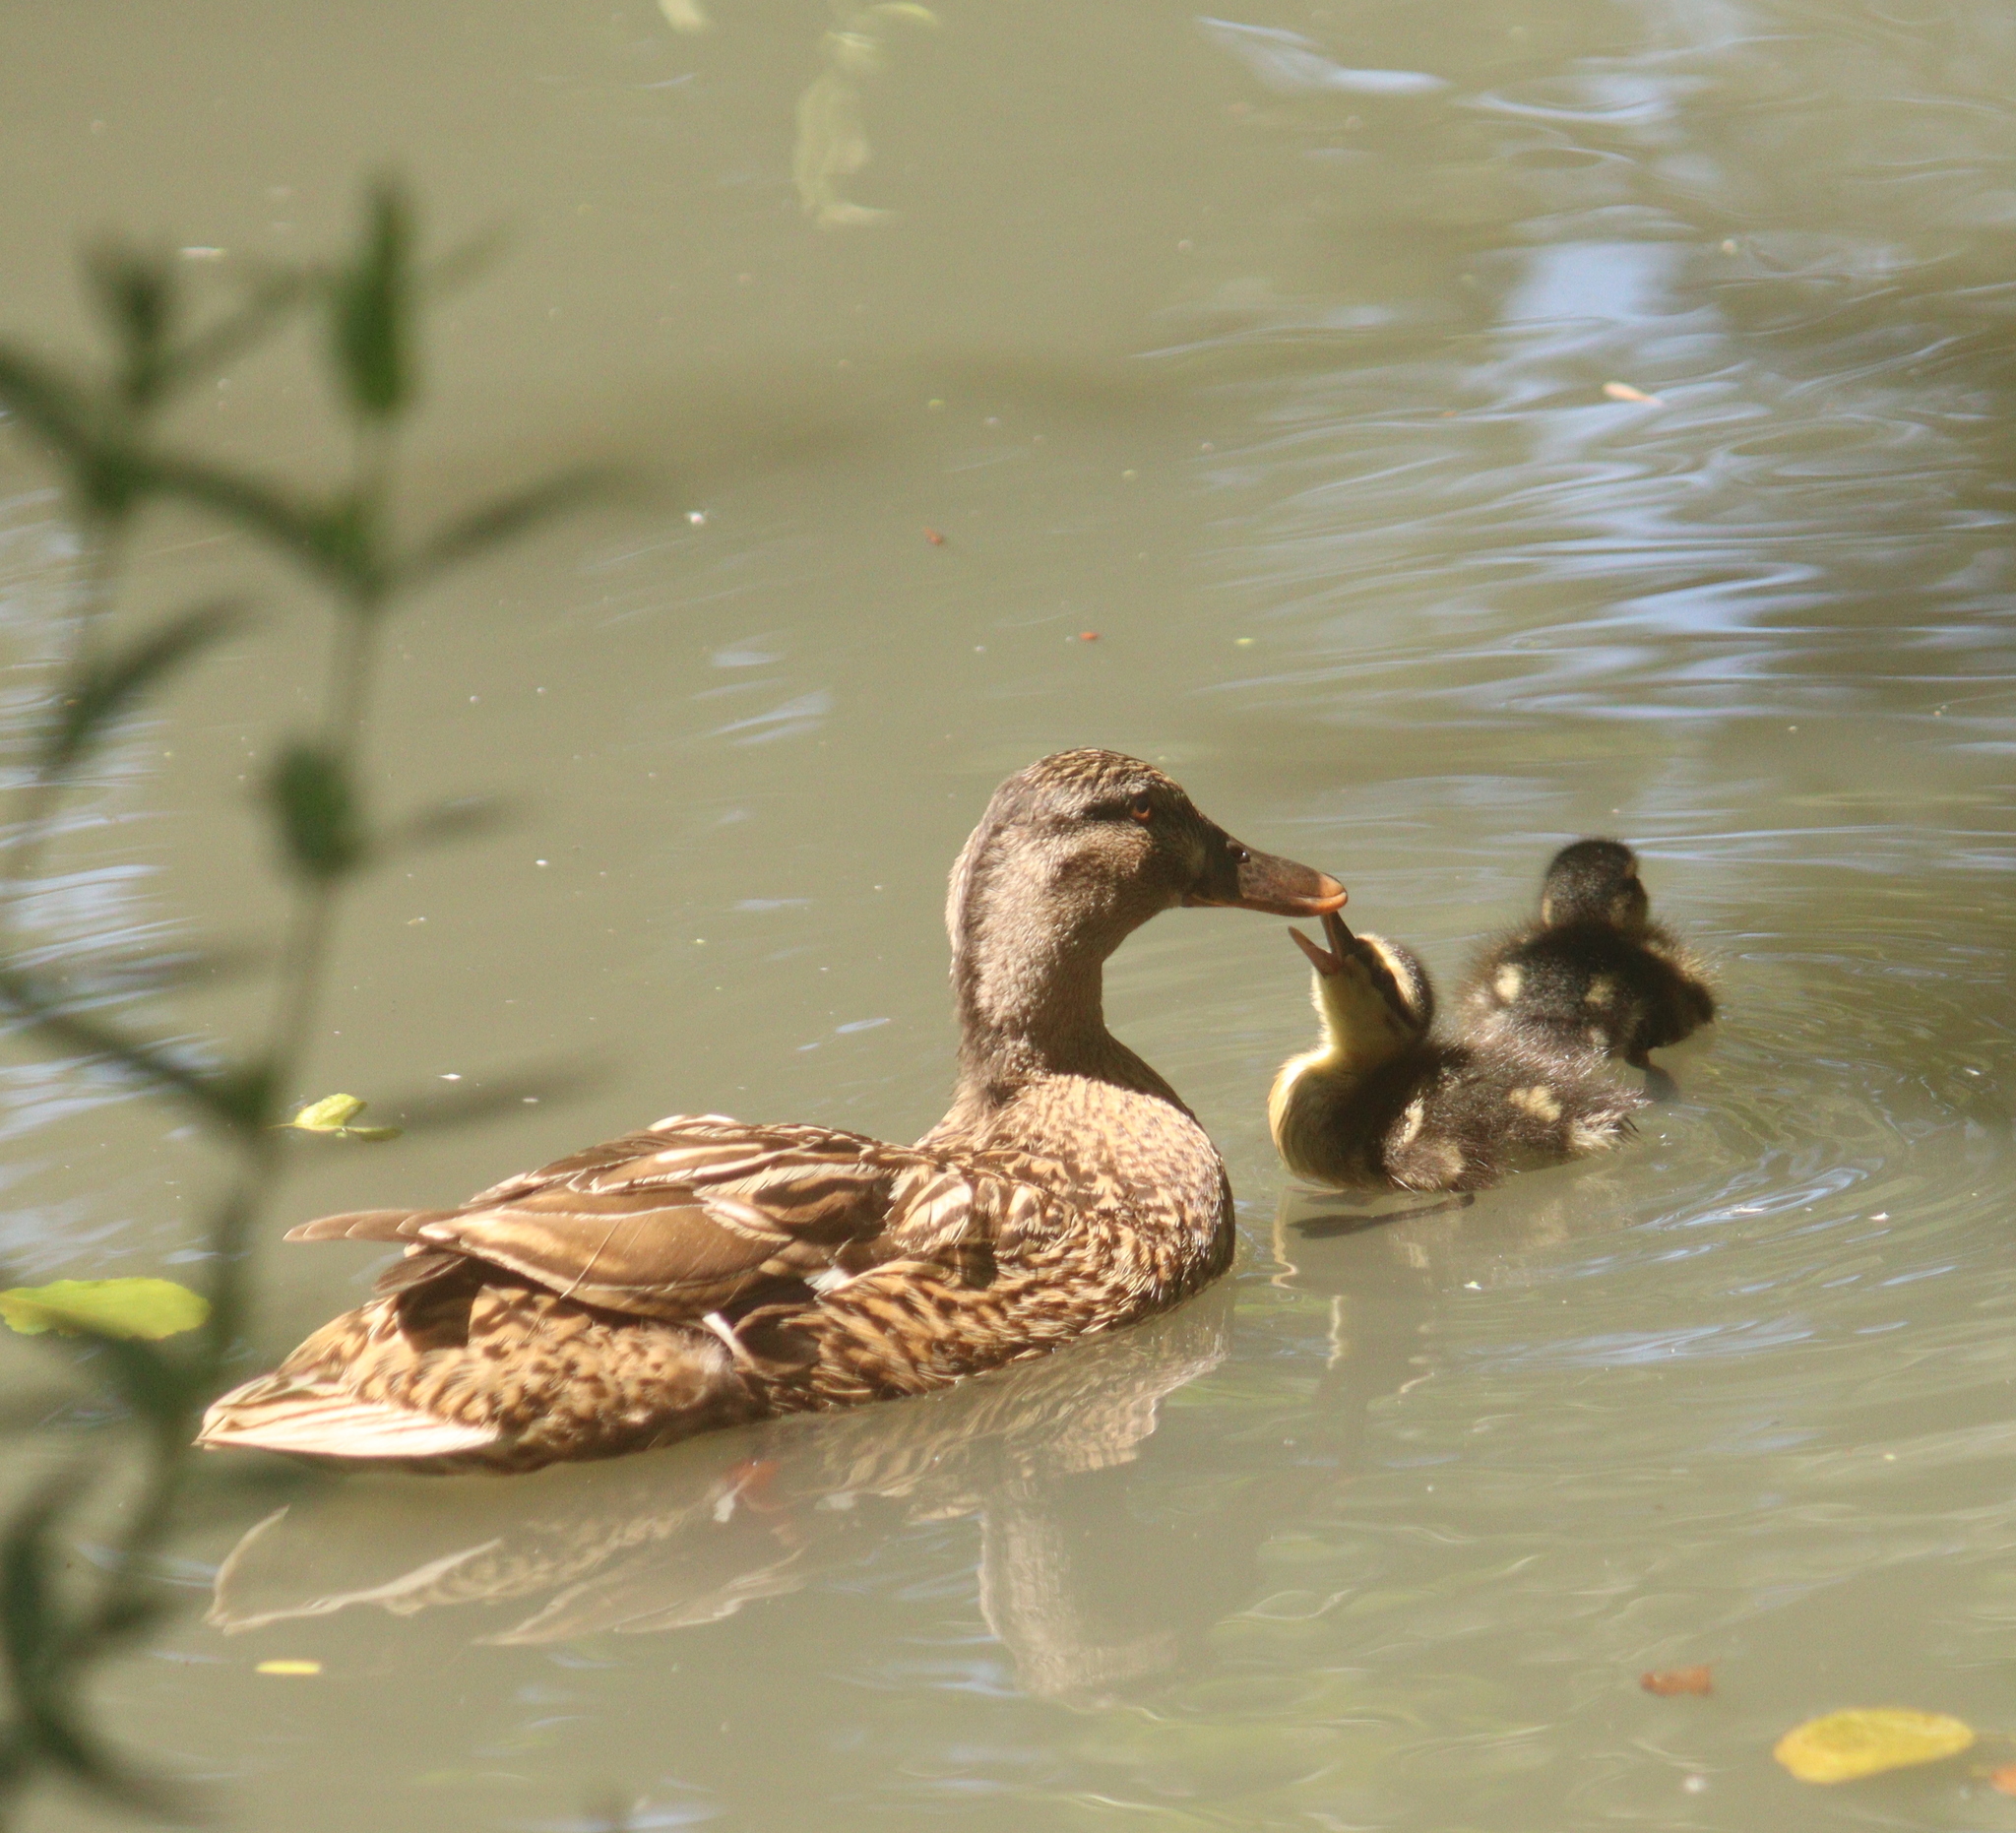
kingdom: Animalia
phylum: Chordata
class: Aves
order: Anseriformes
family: Anatidae
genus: Anas
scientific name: Anas platyrhynchos
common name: Mallard
